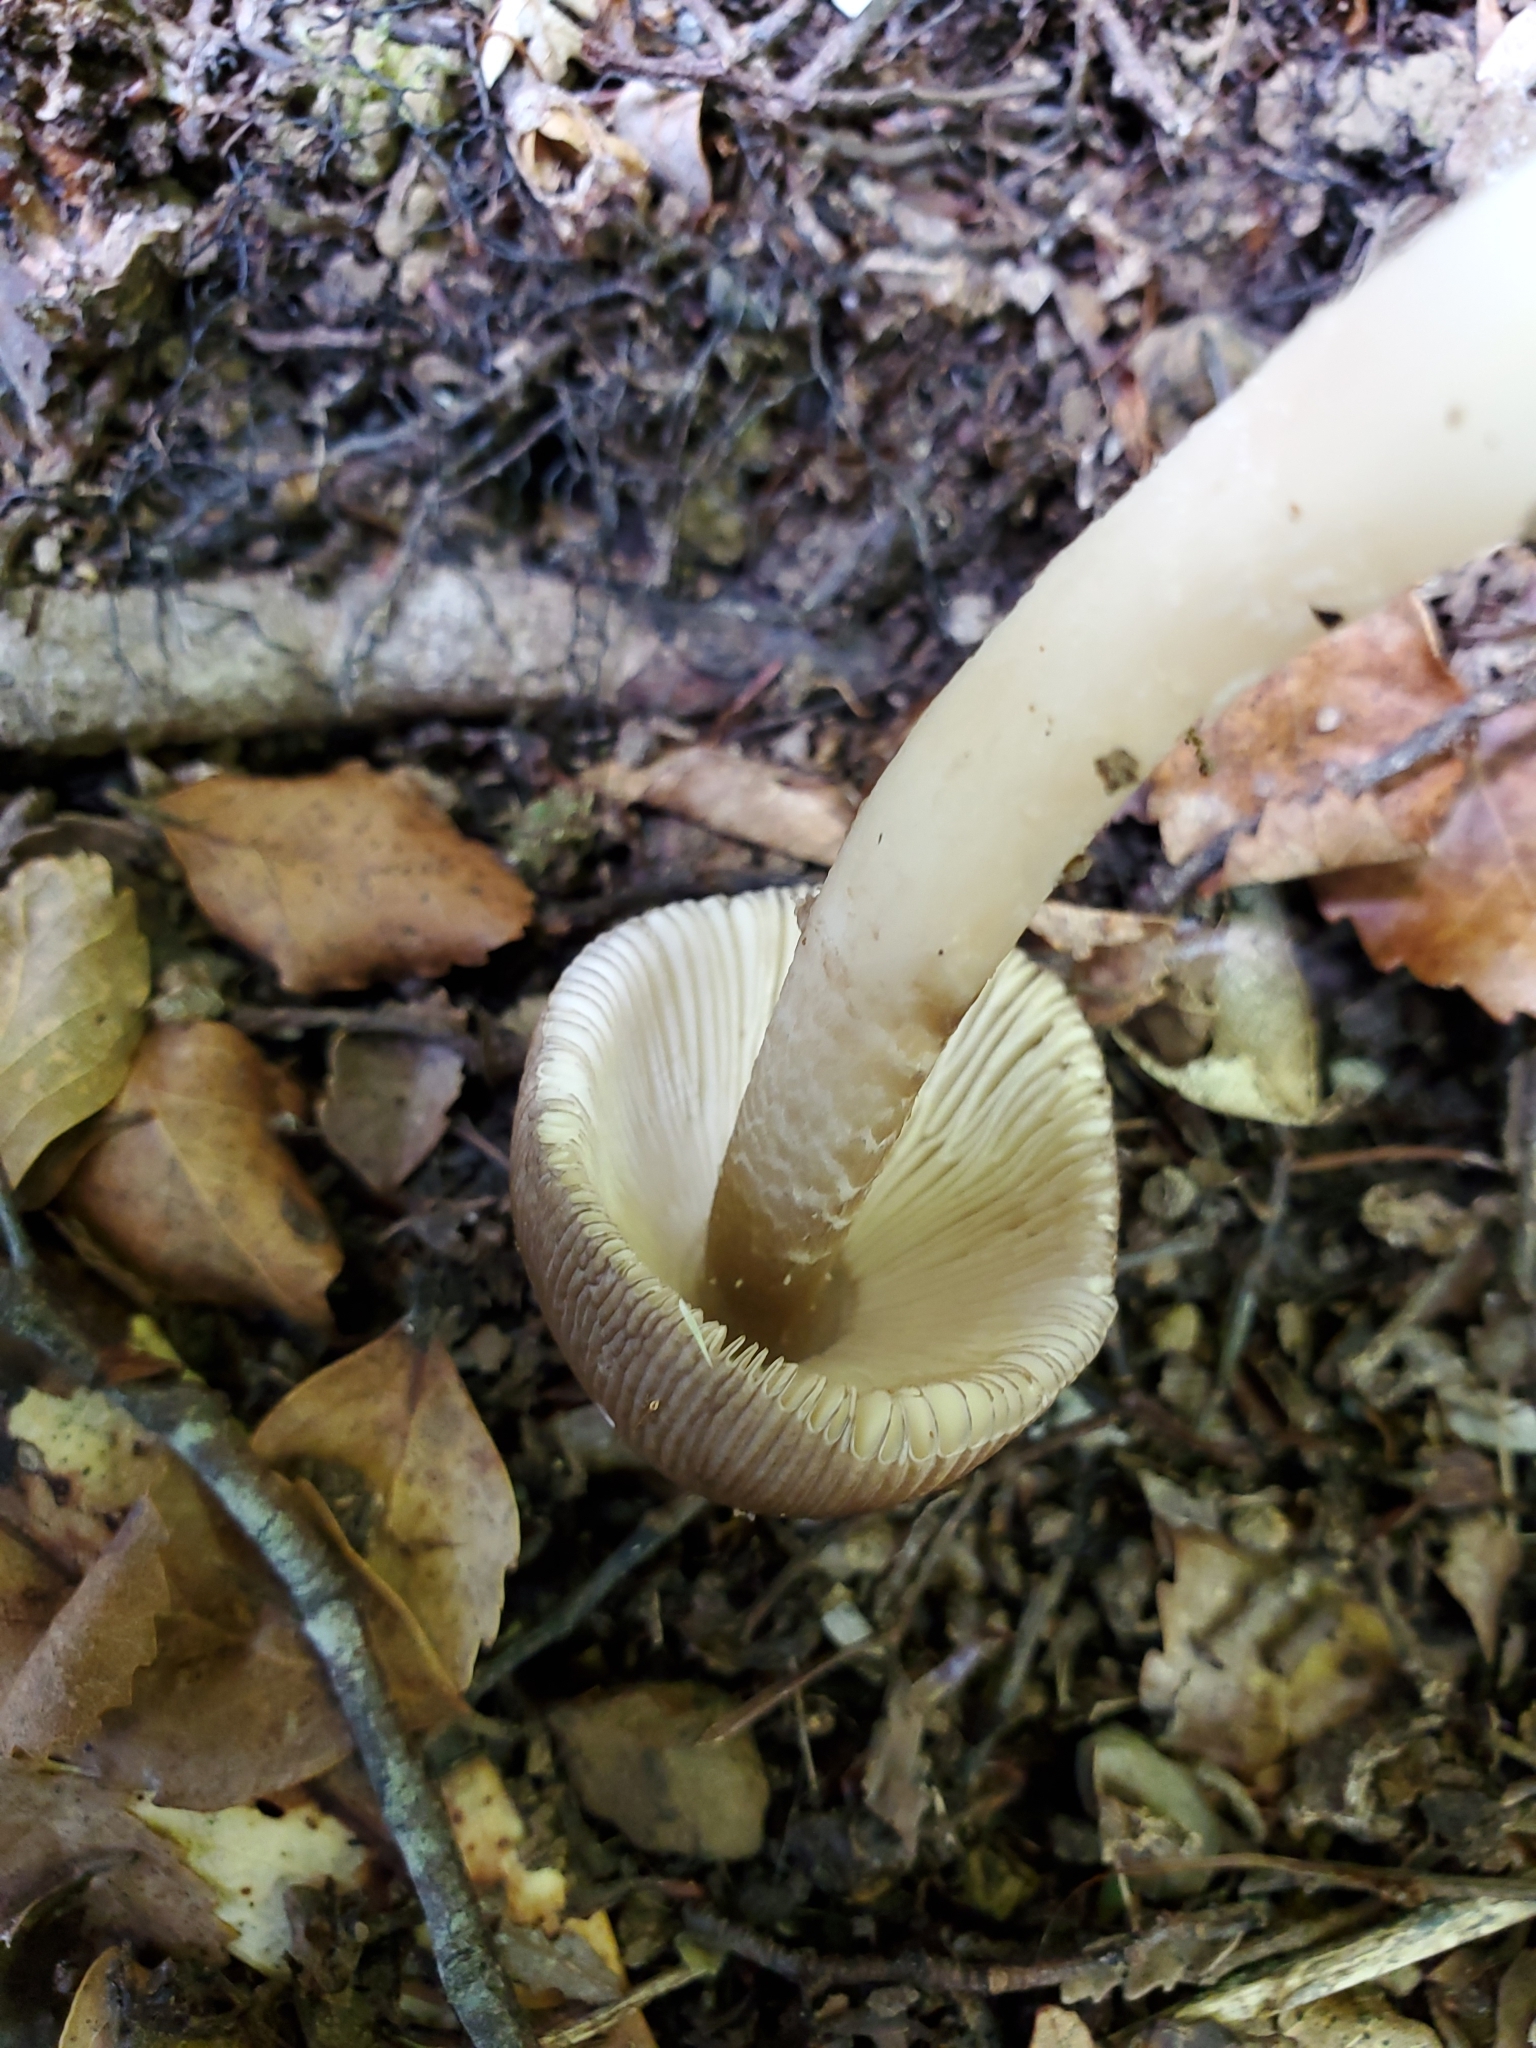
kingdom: Fungi
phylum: Basidiomycota
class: Agaricomycetes
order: Agaricales
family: Amanitaceae
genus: Amanita
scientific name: Amanita pekeoides
